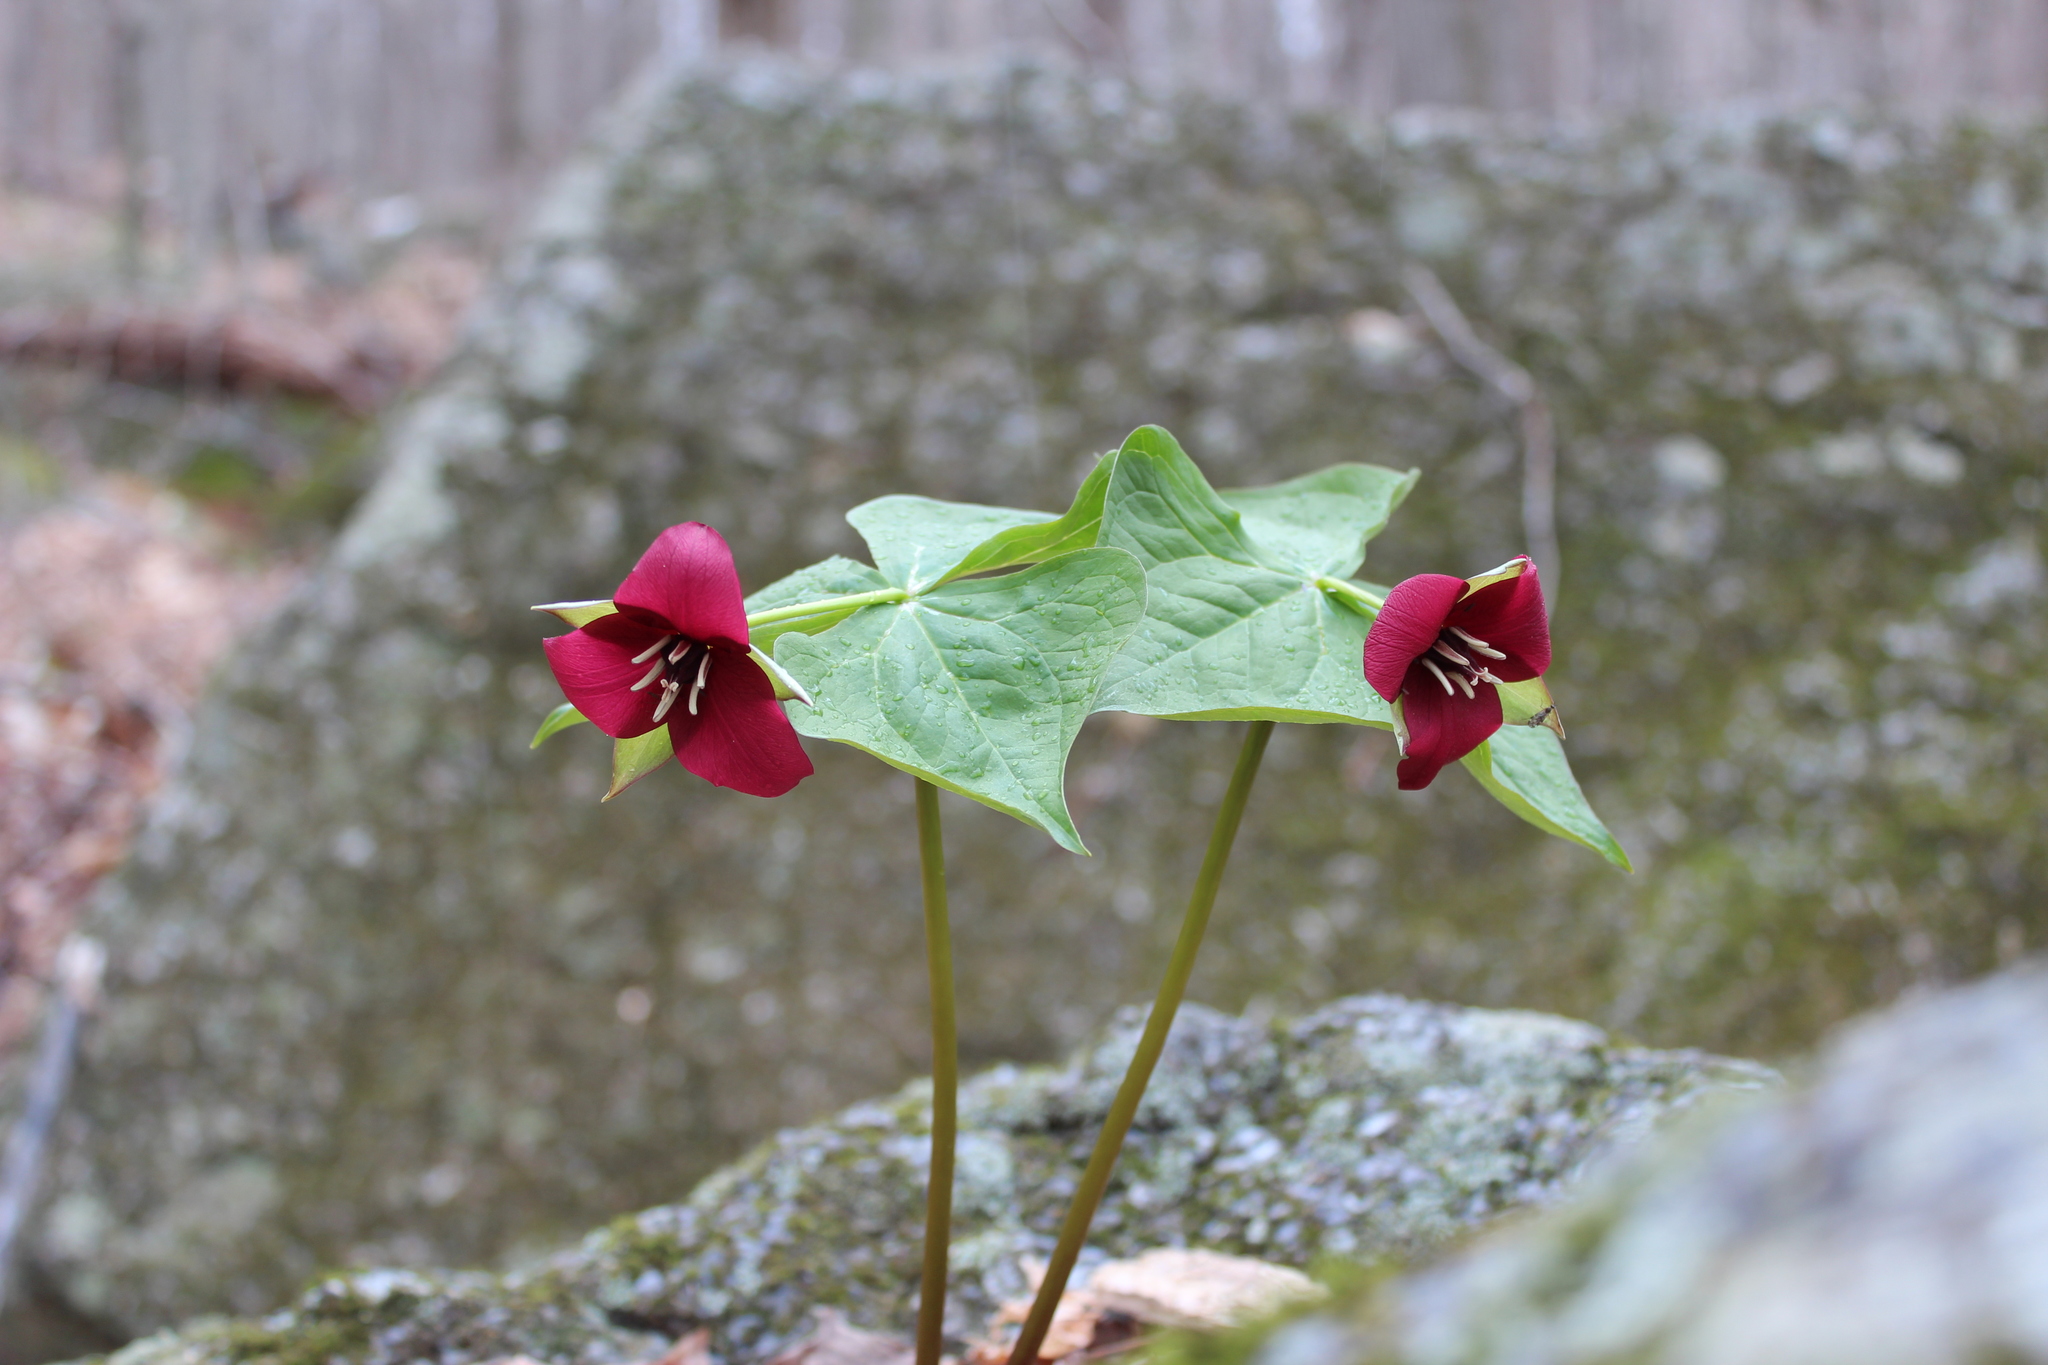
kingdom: Plantae
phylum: Tracheophyta
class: Liliopsida
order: Liliales
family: Melanthiaceae
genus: Trillium
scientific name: Trillium erectum
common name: Purple trillium
